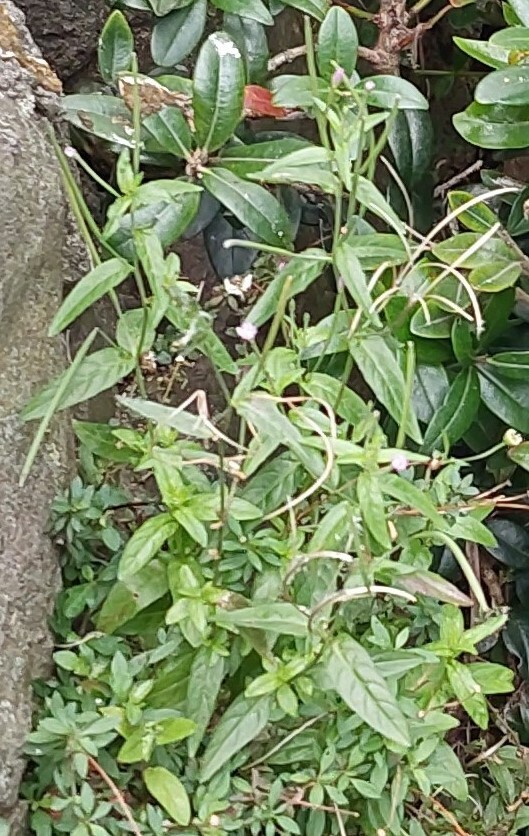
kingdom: Plantae
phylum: Tracheophyta
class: Magnoliopsida
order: Myrtales
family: Onagraceae
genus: Epilobium
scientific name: Epilobium ciliatum
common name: American willowherb
